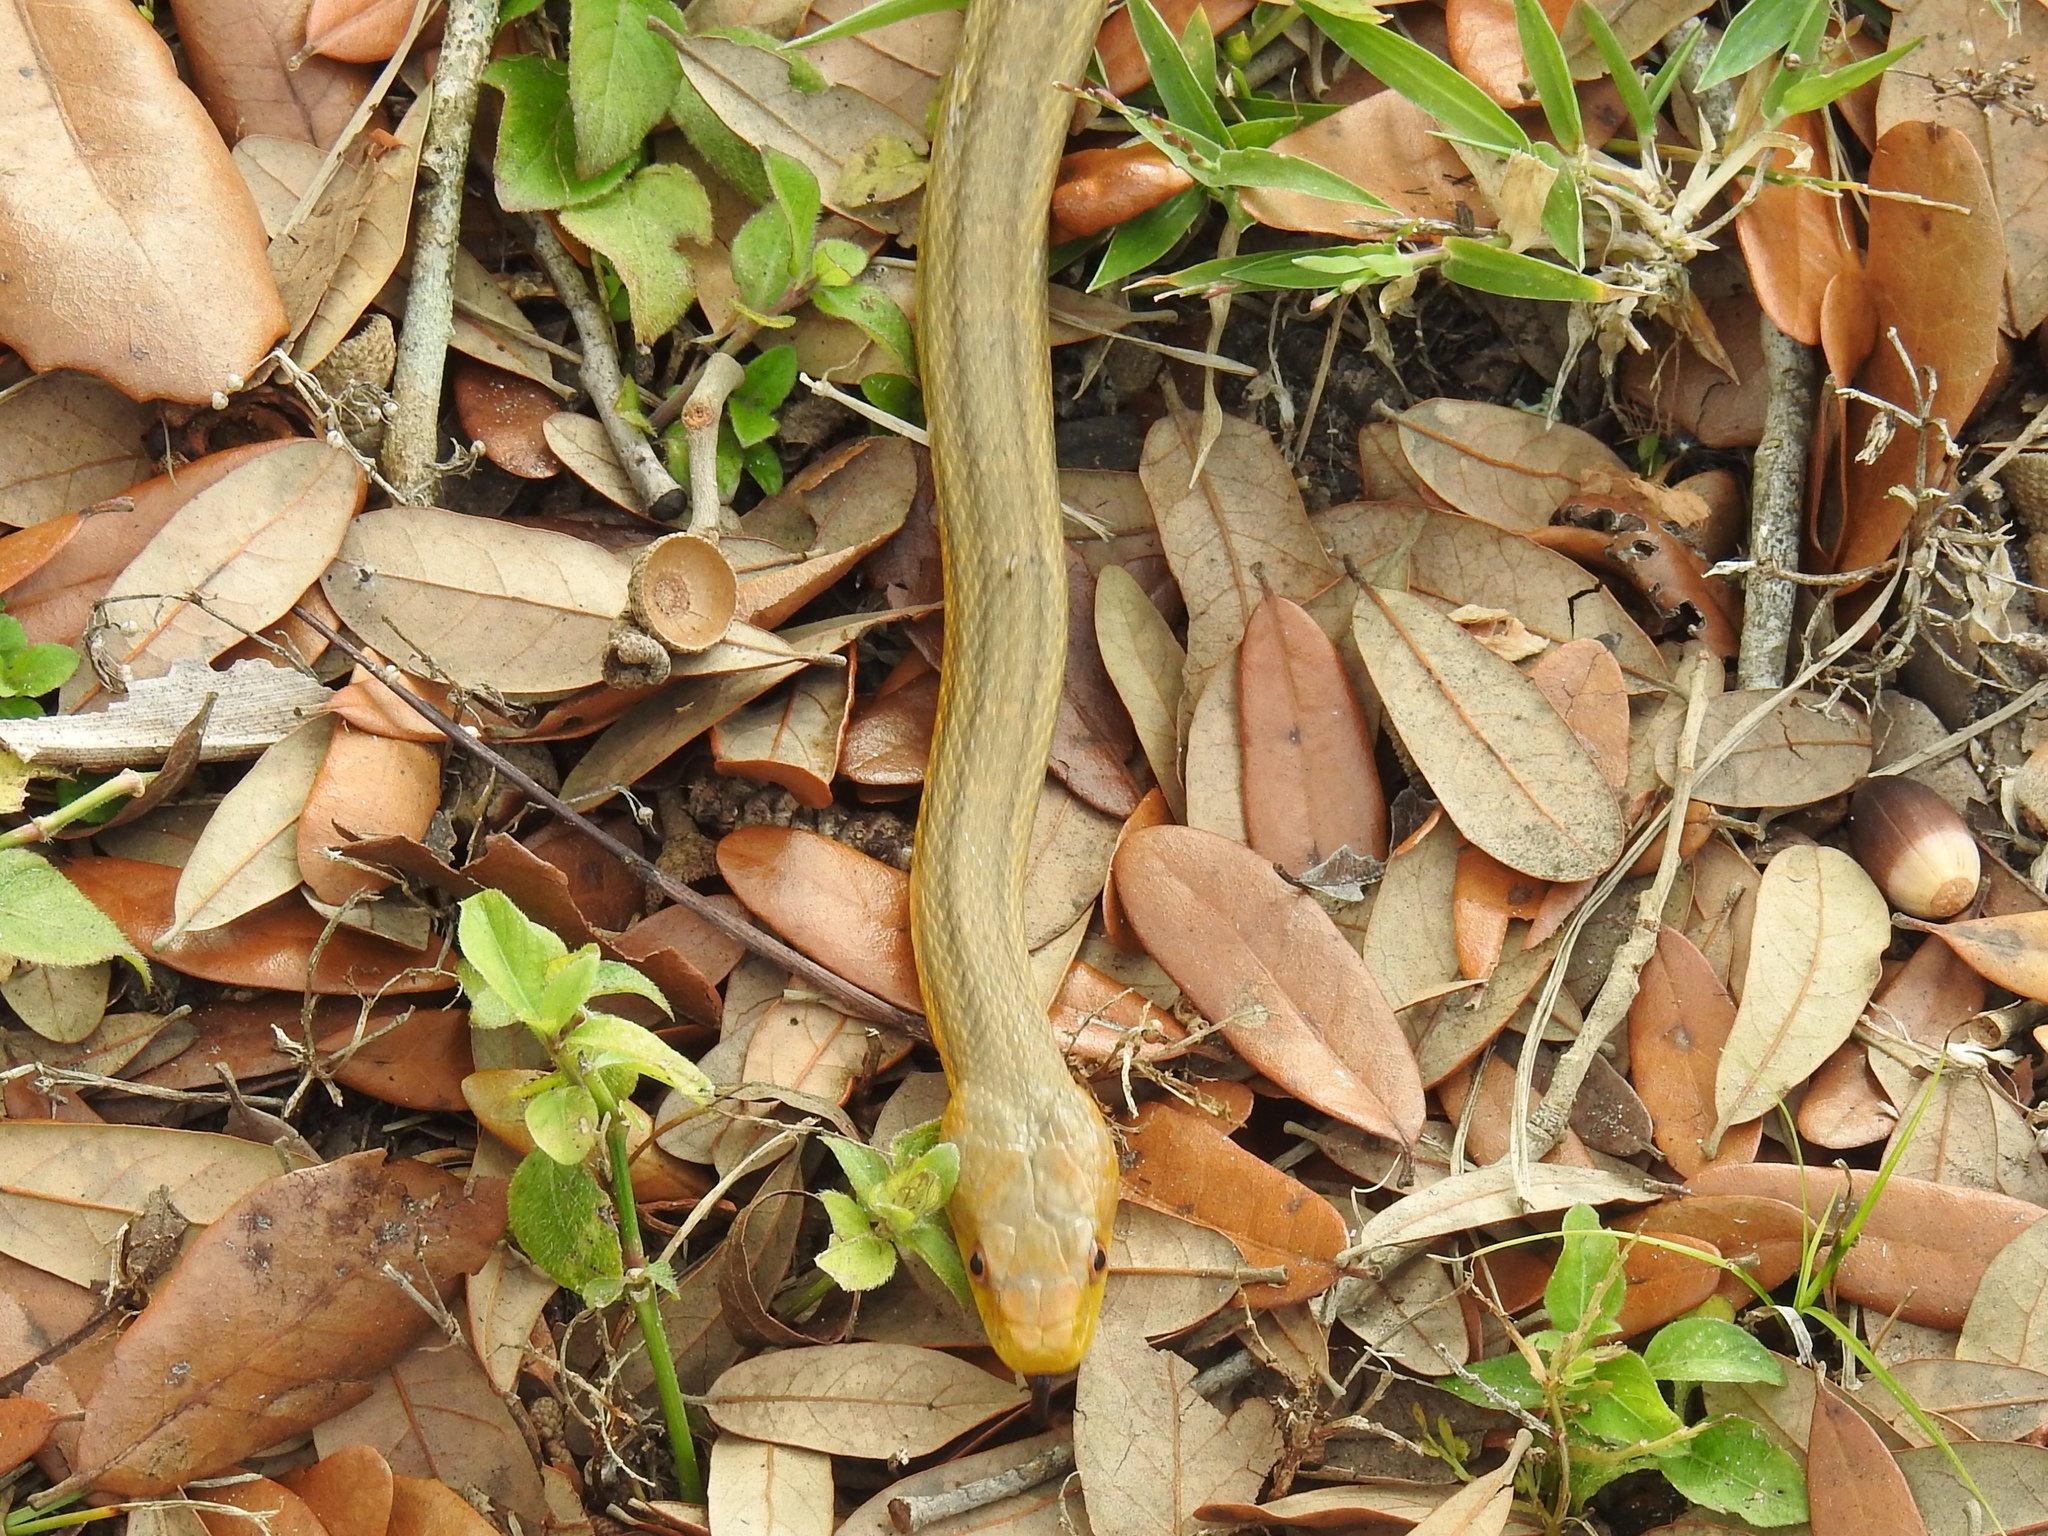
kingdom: Animalia
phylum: Chordata
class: Squamata
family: Colubridae
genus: Pantherophis
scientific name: Pantherophis alleghaniensis
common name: Eastern rat snake
